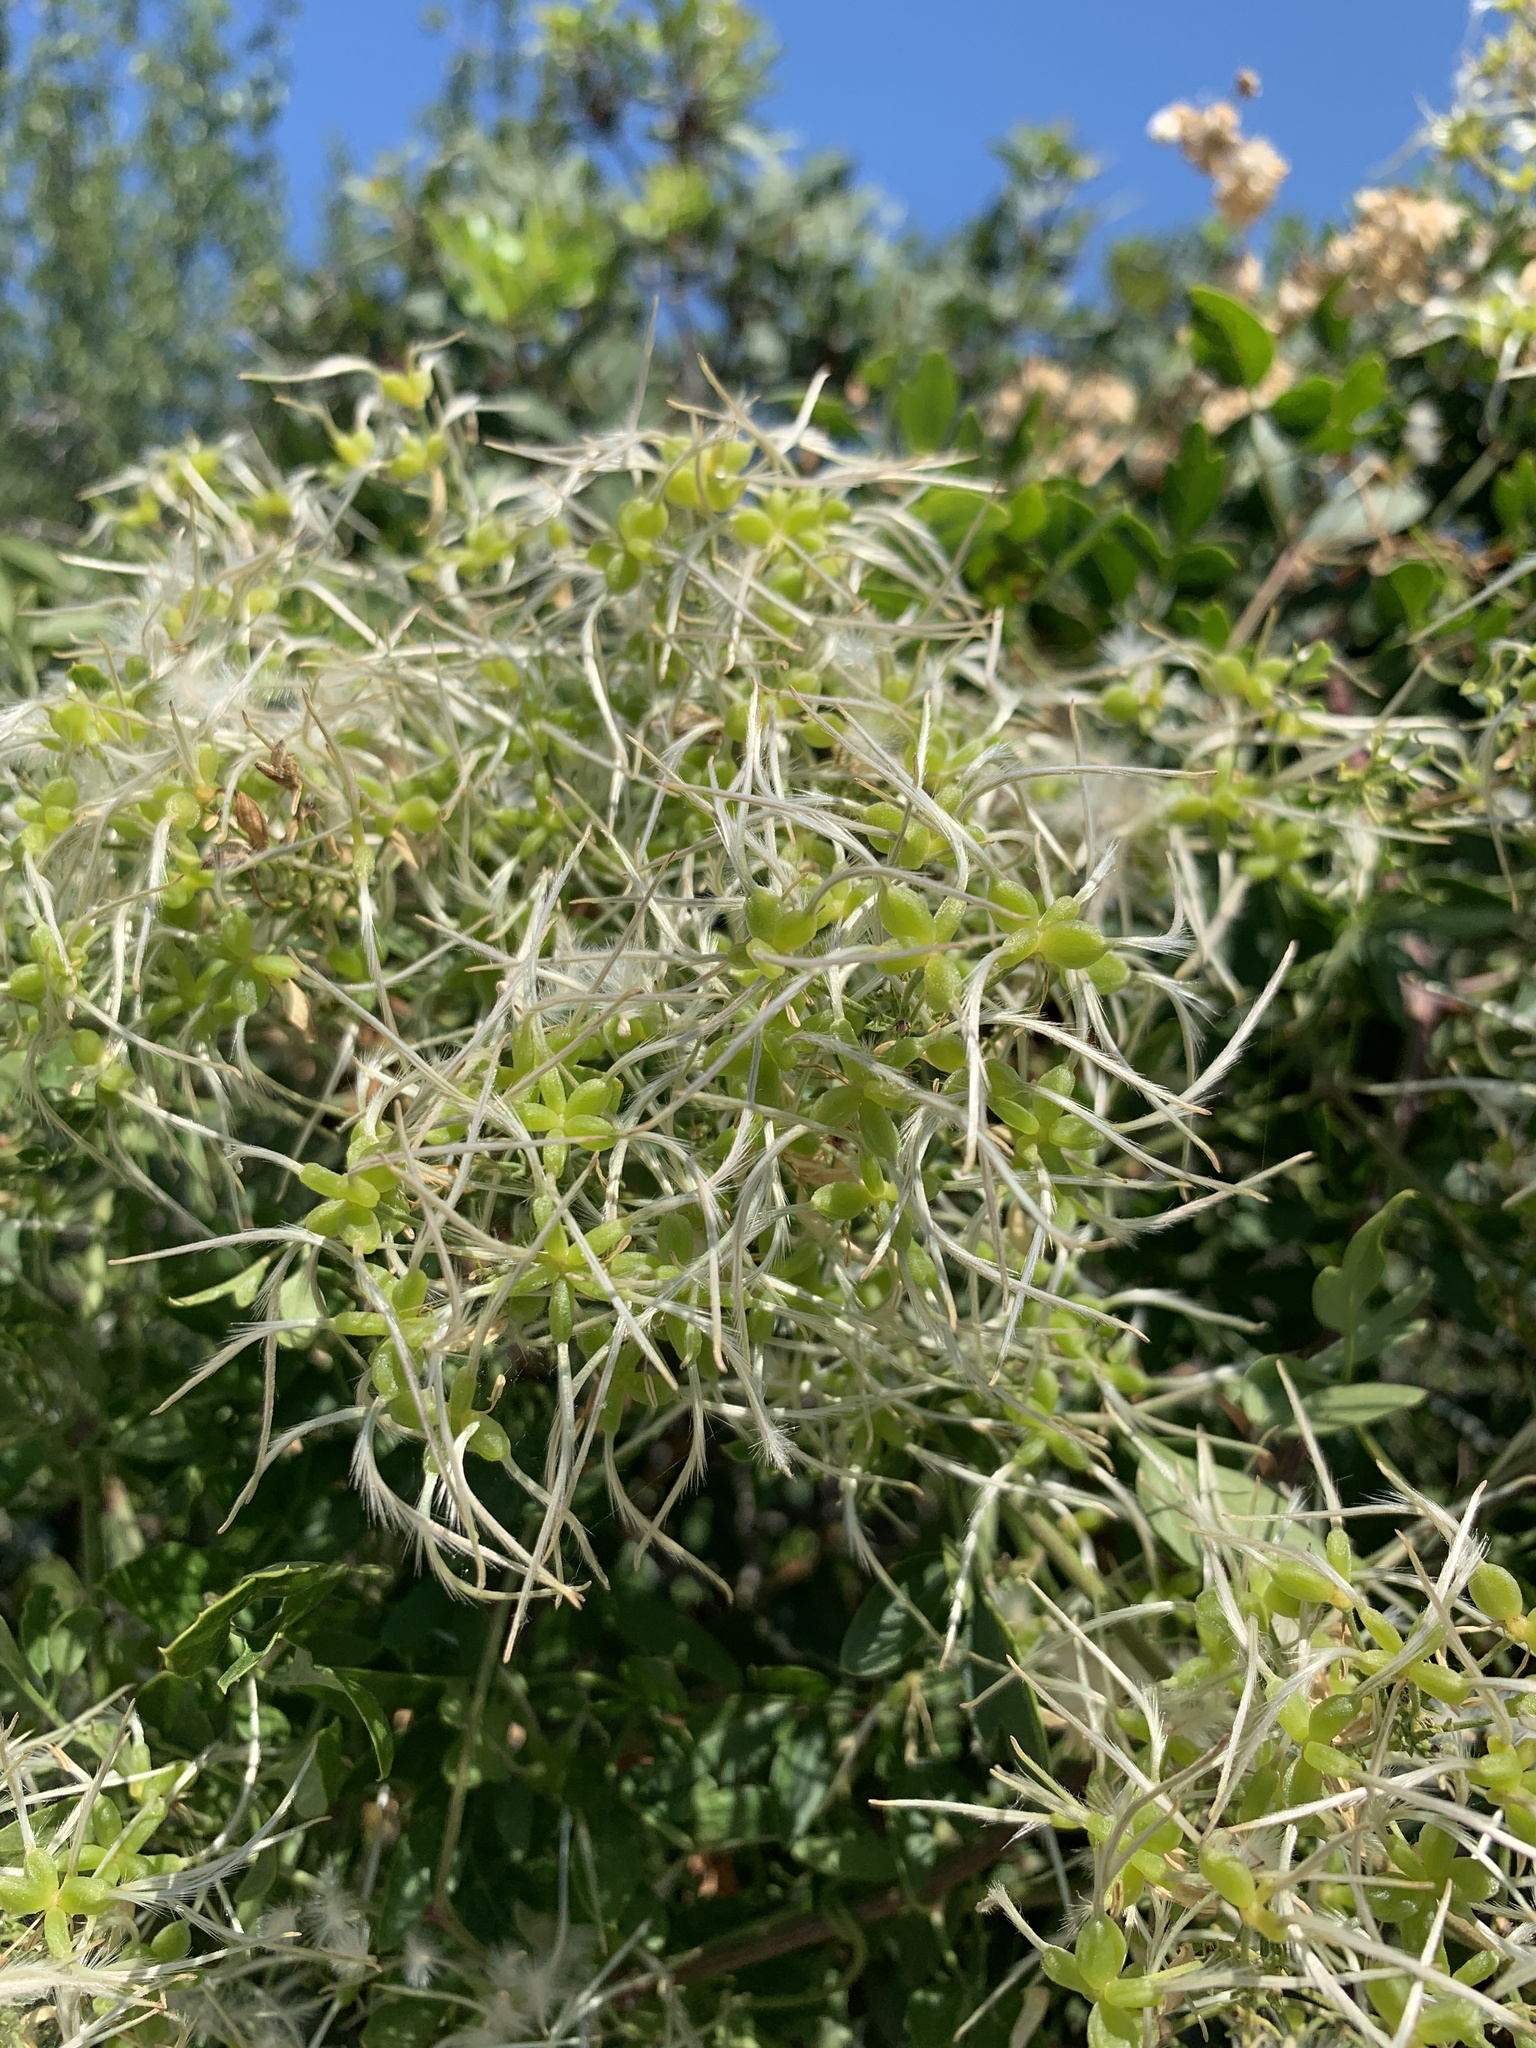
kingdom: Plantae
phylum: Tracheophyta
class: Magnoliopsida
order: Ranunculales
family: Ranunculaceae
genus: Clematis
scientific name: Clematis flammula
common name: Virgin's-bower
